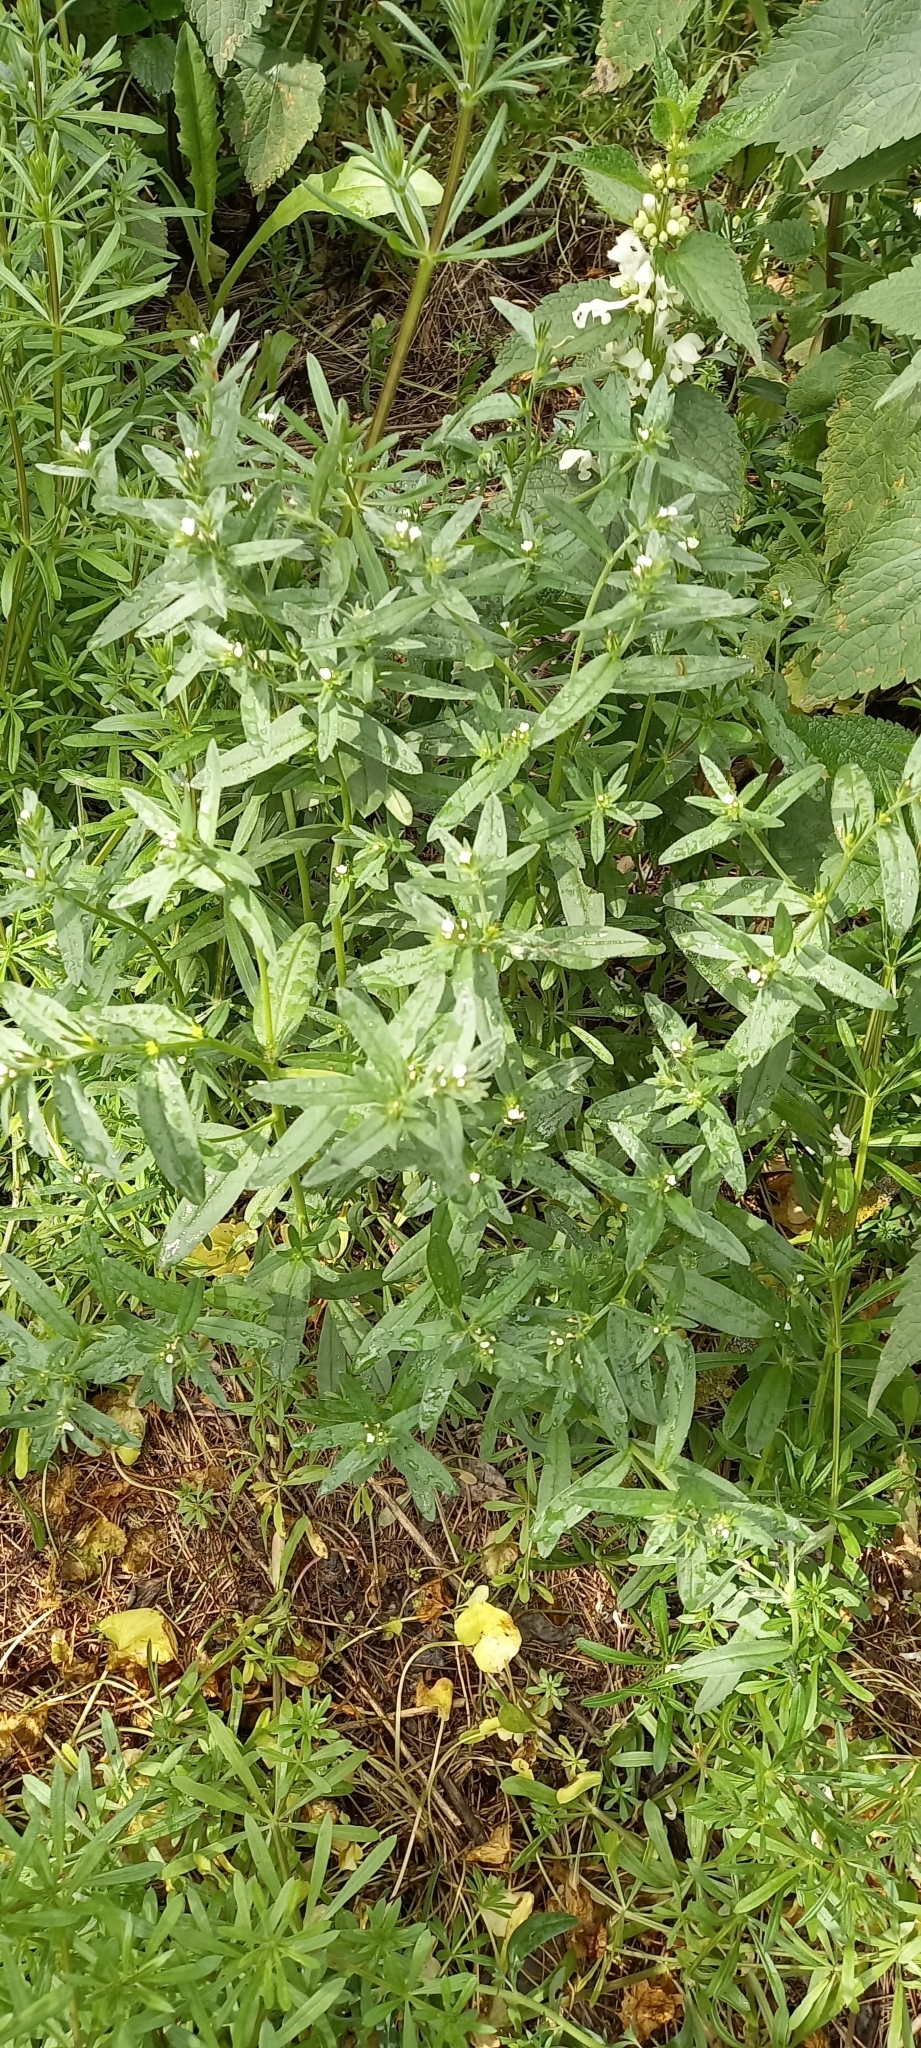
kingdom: Plantae
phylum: Tracheophyta
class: Magnoliopsida
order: Boraginales
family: Boraginaceae
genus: Buglossoides
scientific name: Buglossoides arvensis
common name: Corn gromwell
